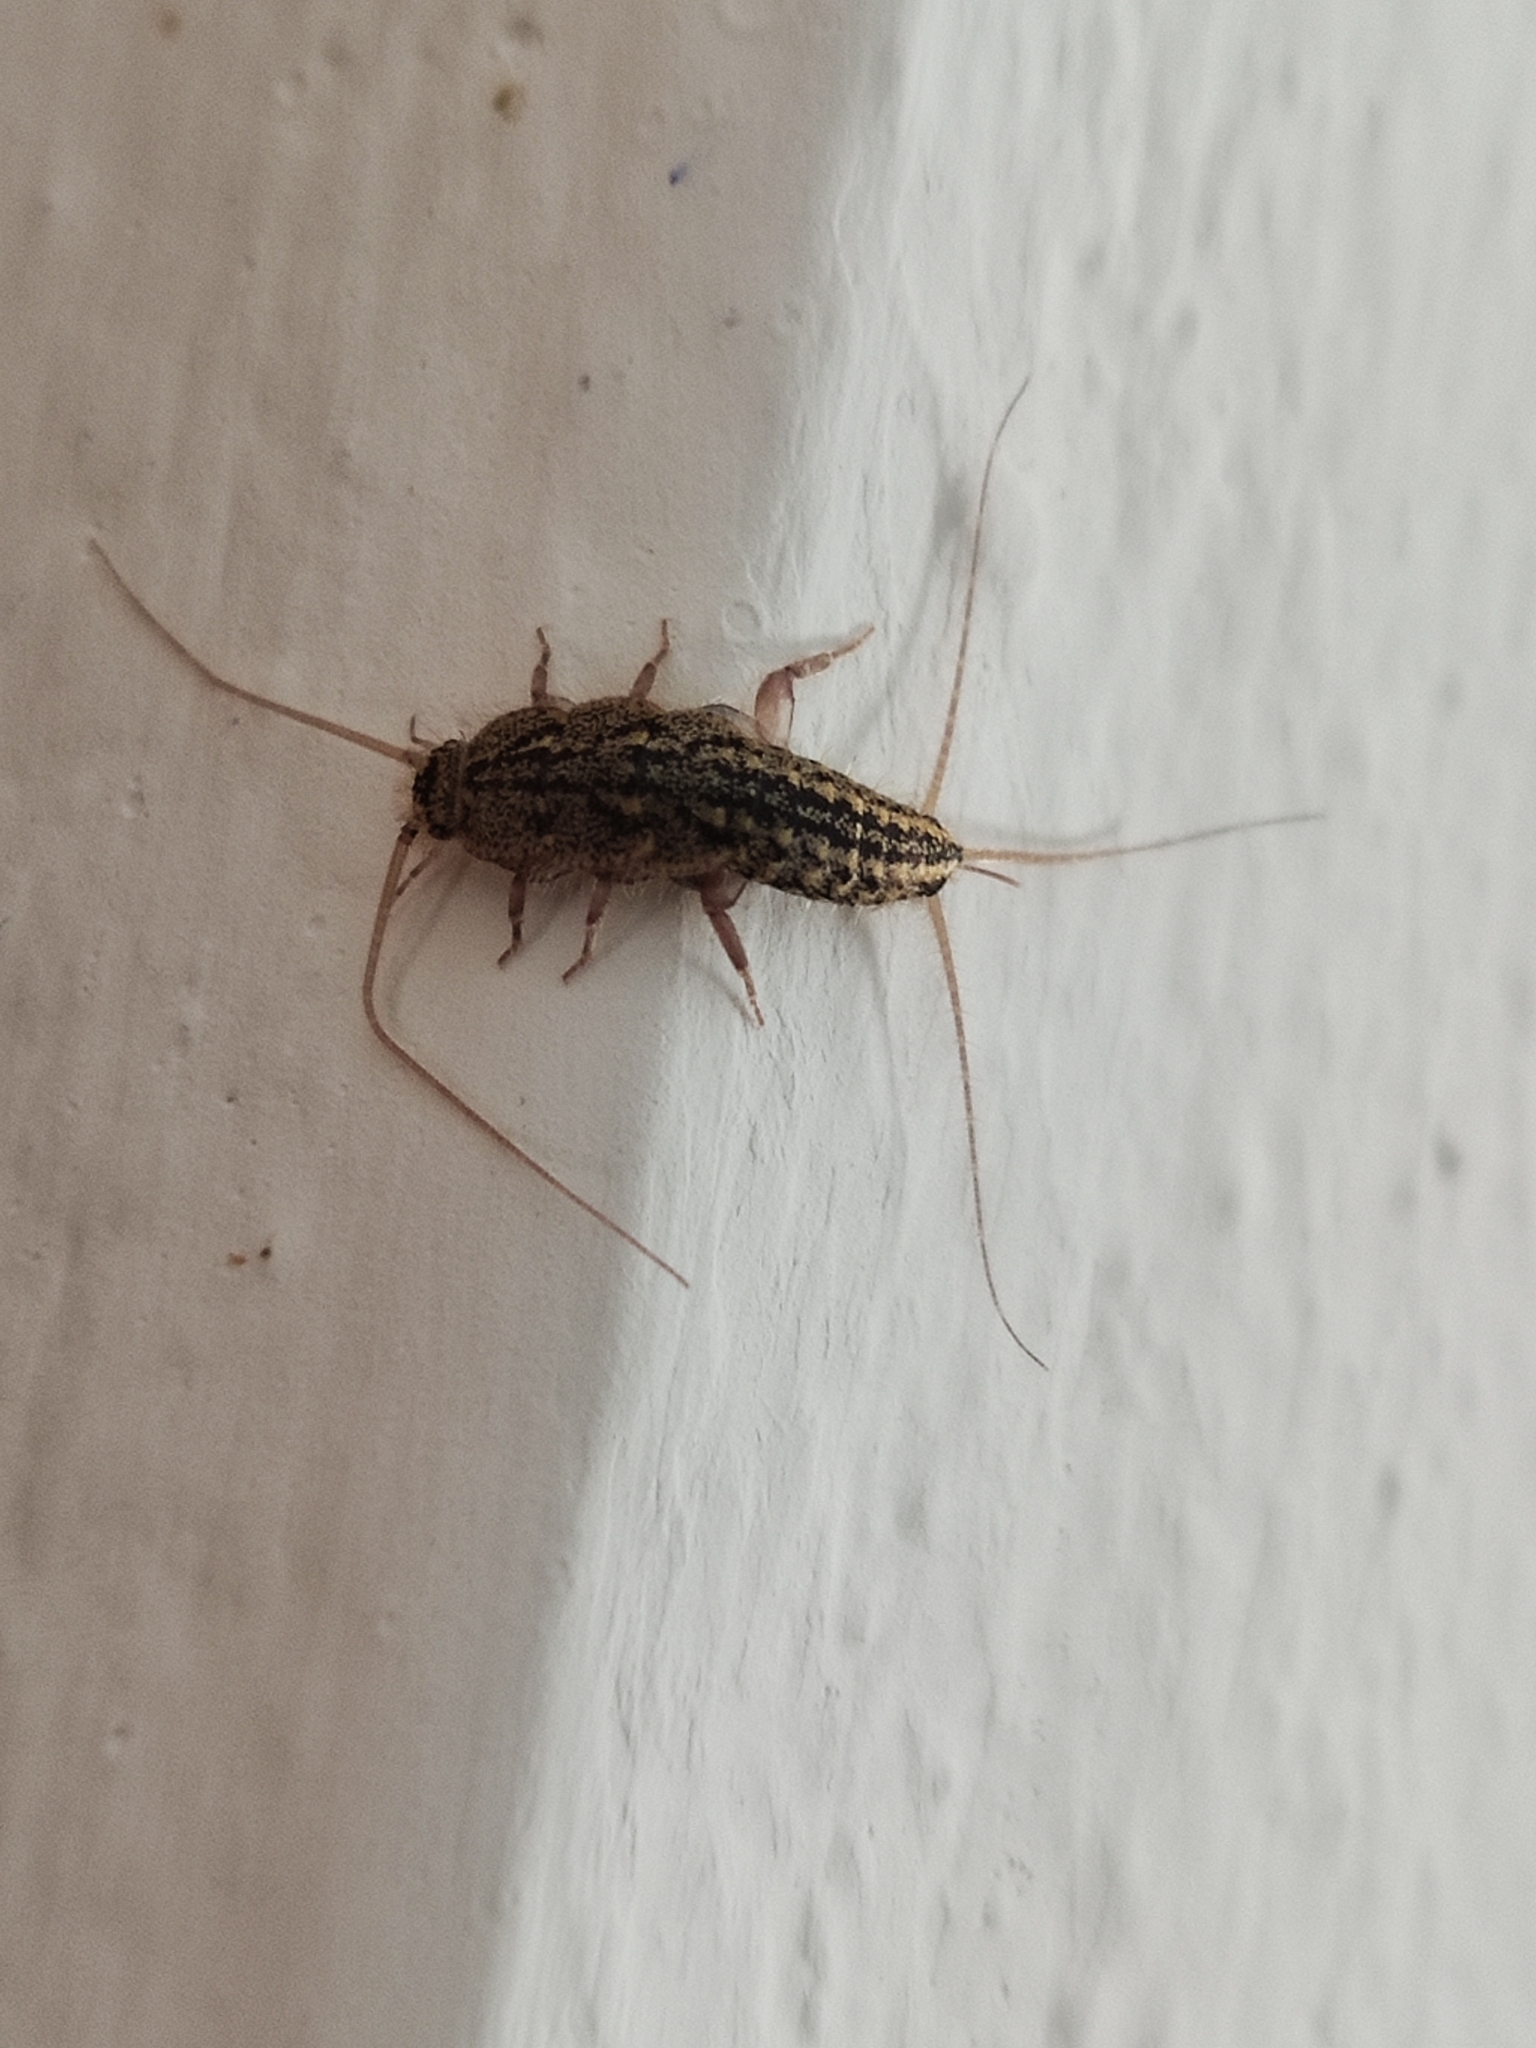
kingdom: Animalia
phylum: Arthropoda
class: Insecta
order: Zygentoma
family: Lepismatidae
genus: Ctenolepisma
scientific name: Ctenolepisma lineata
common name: Four-lined silverfish
